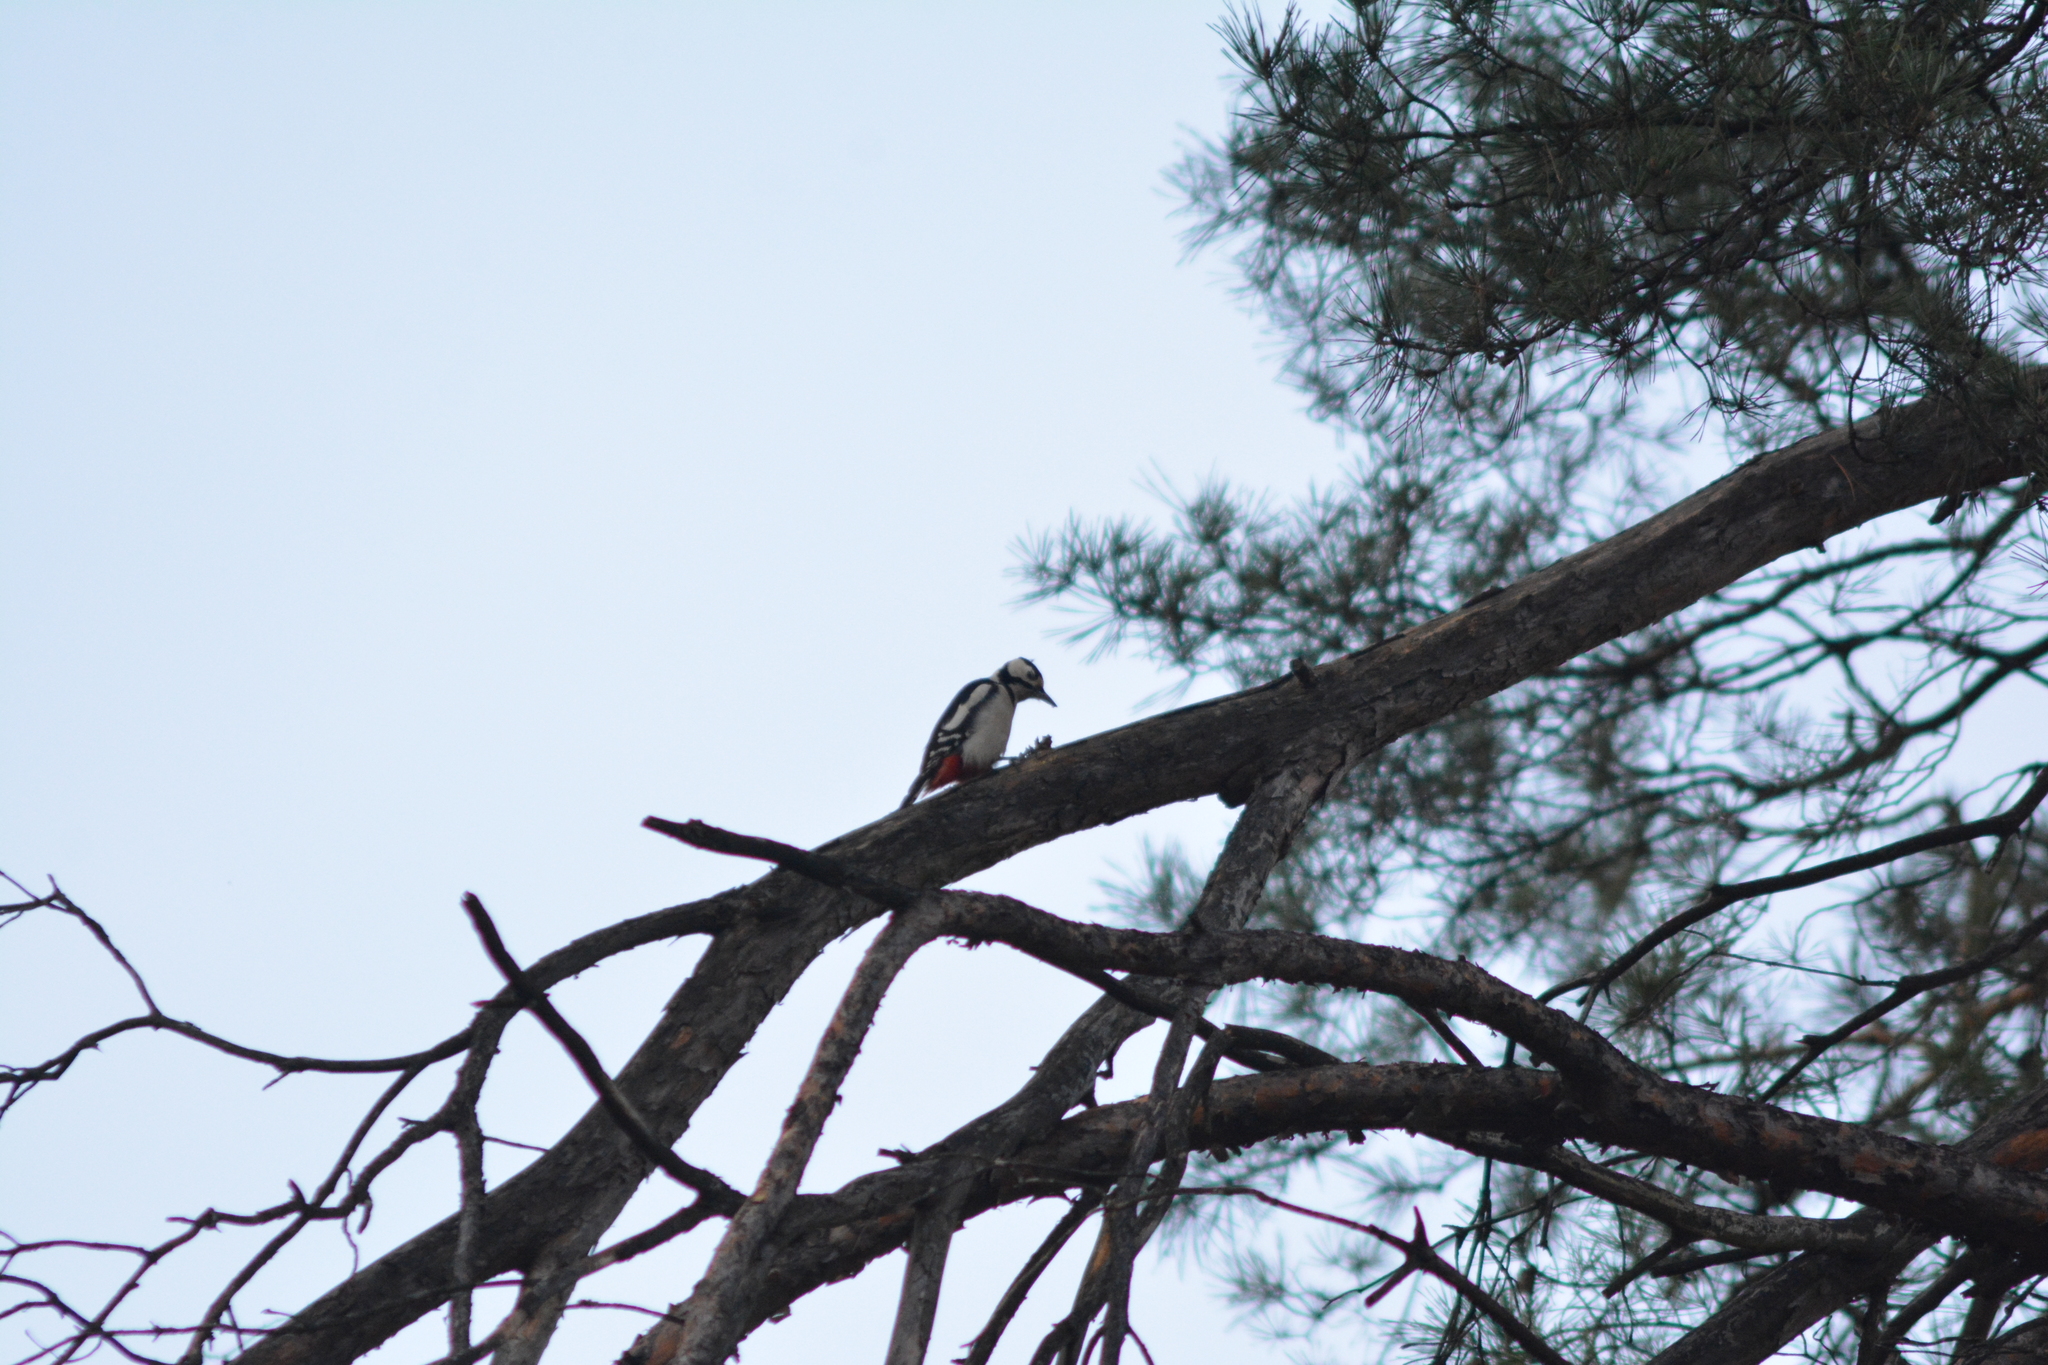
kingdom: Animalia
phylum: Chordata
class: Aves
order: Piciformes
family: Picidae
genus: Dendrocopos
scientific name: Dendrocopos major
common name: Great spotted woodpecker
